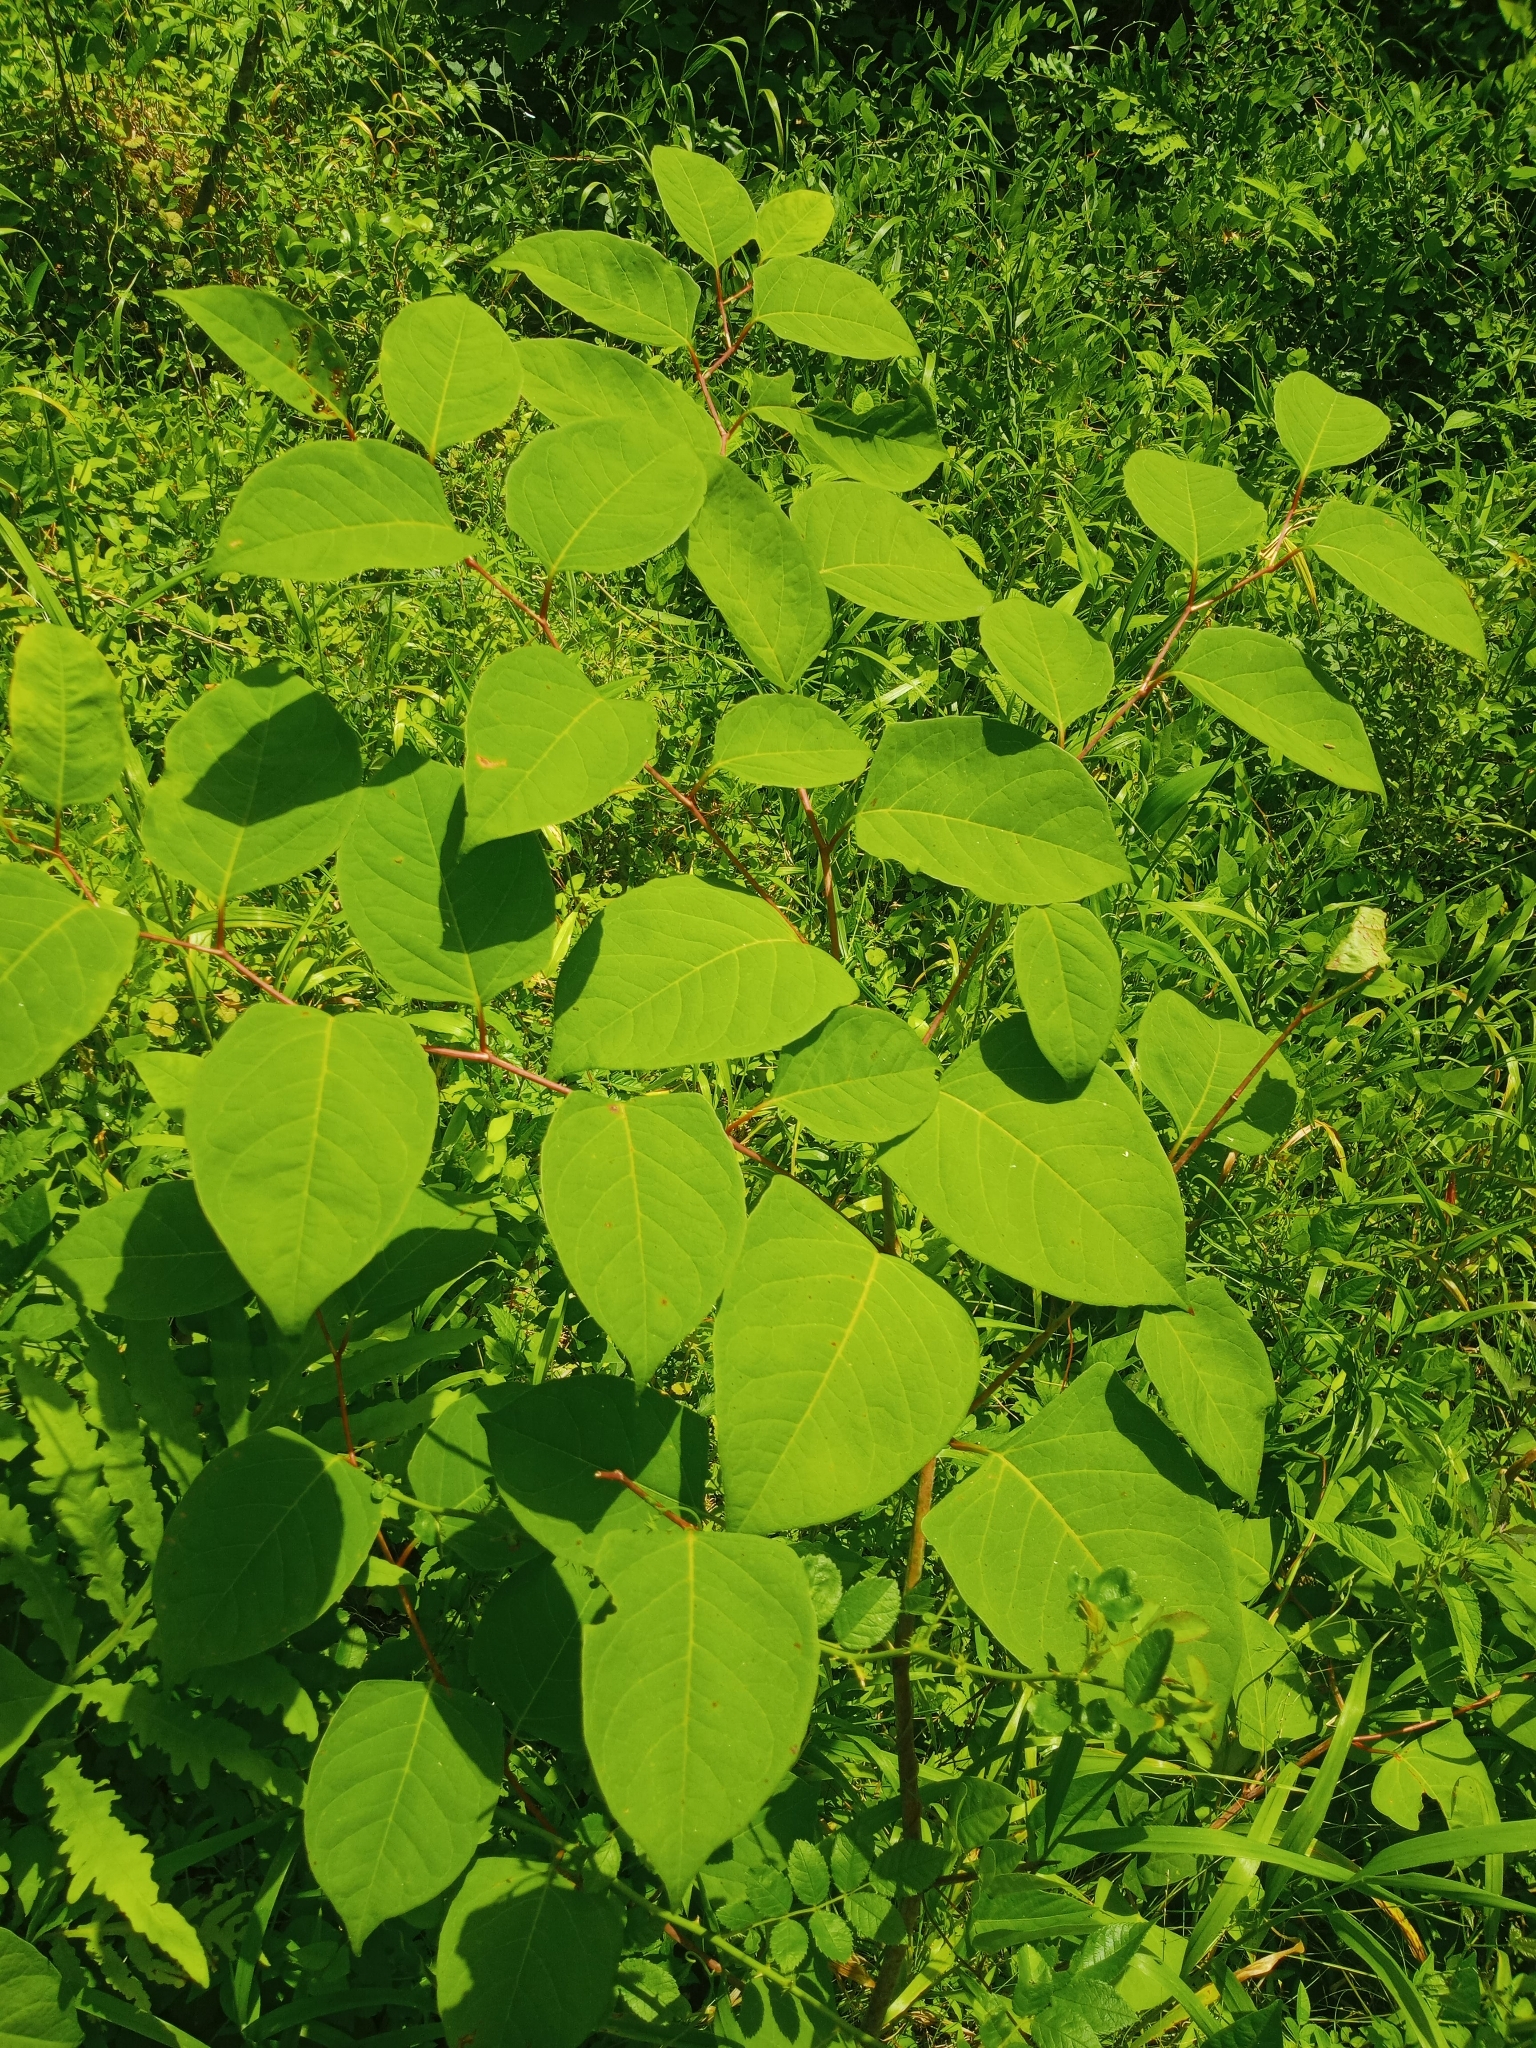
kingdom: Plantae
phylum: Tracheophyta
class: Magnoliopsida
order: Caryophyllales
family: Polygonaceae
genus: Reynoutria
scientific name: Reynoutria japonica
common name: Japanese knotweed
